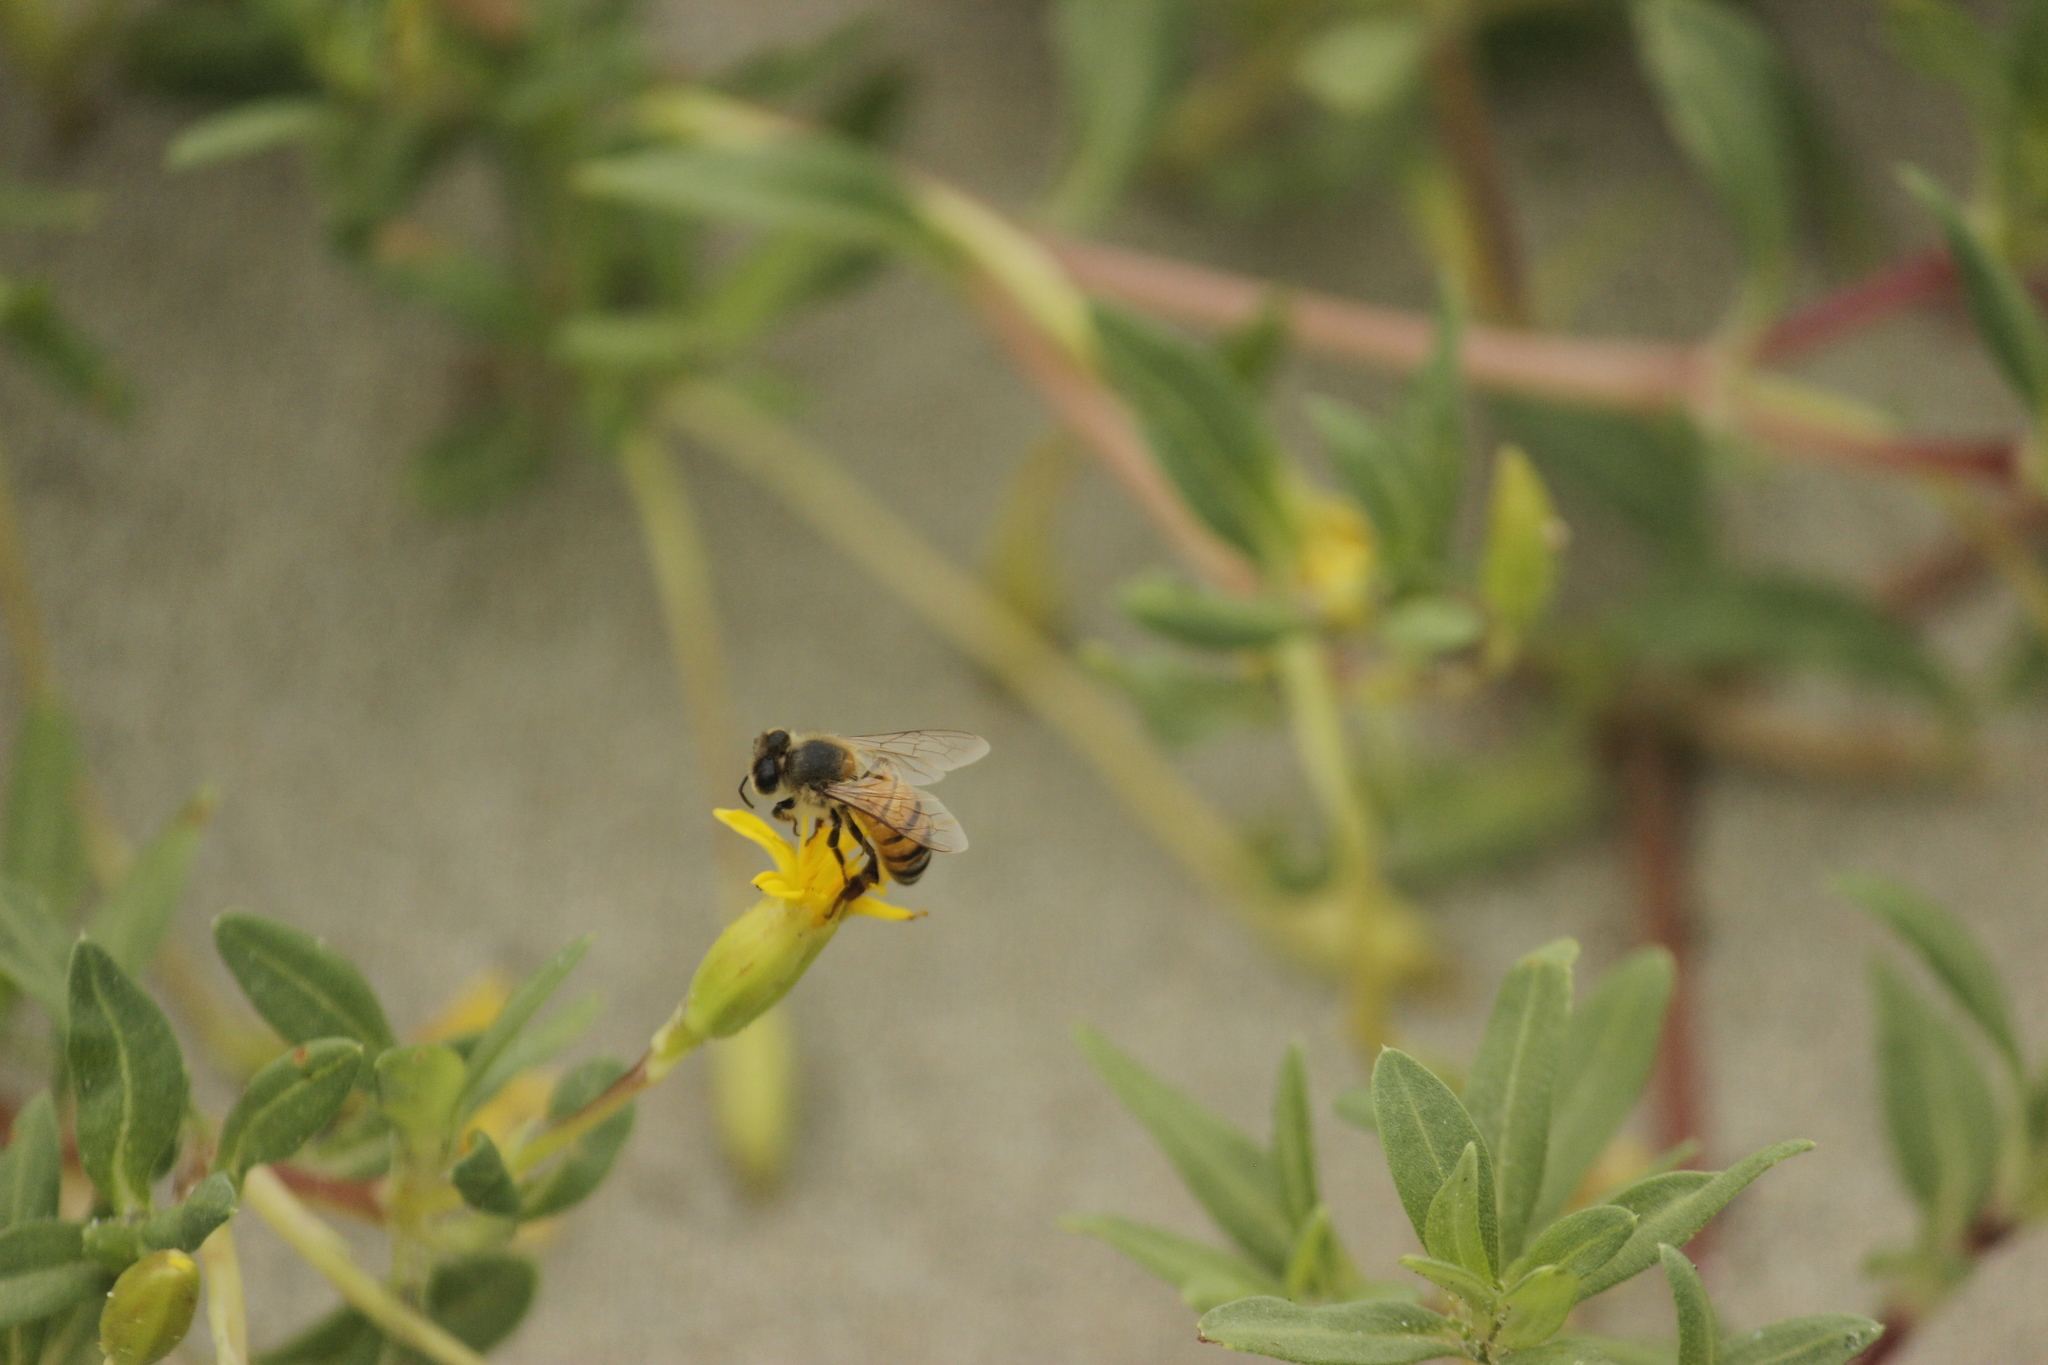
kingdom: Animalia
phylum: Arthropoda
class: Insecta
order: Hymenoptera
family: Apidae
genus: Apis
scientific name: Apis mellifera
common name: Honey bee
